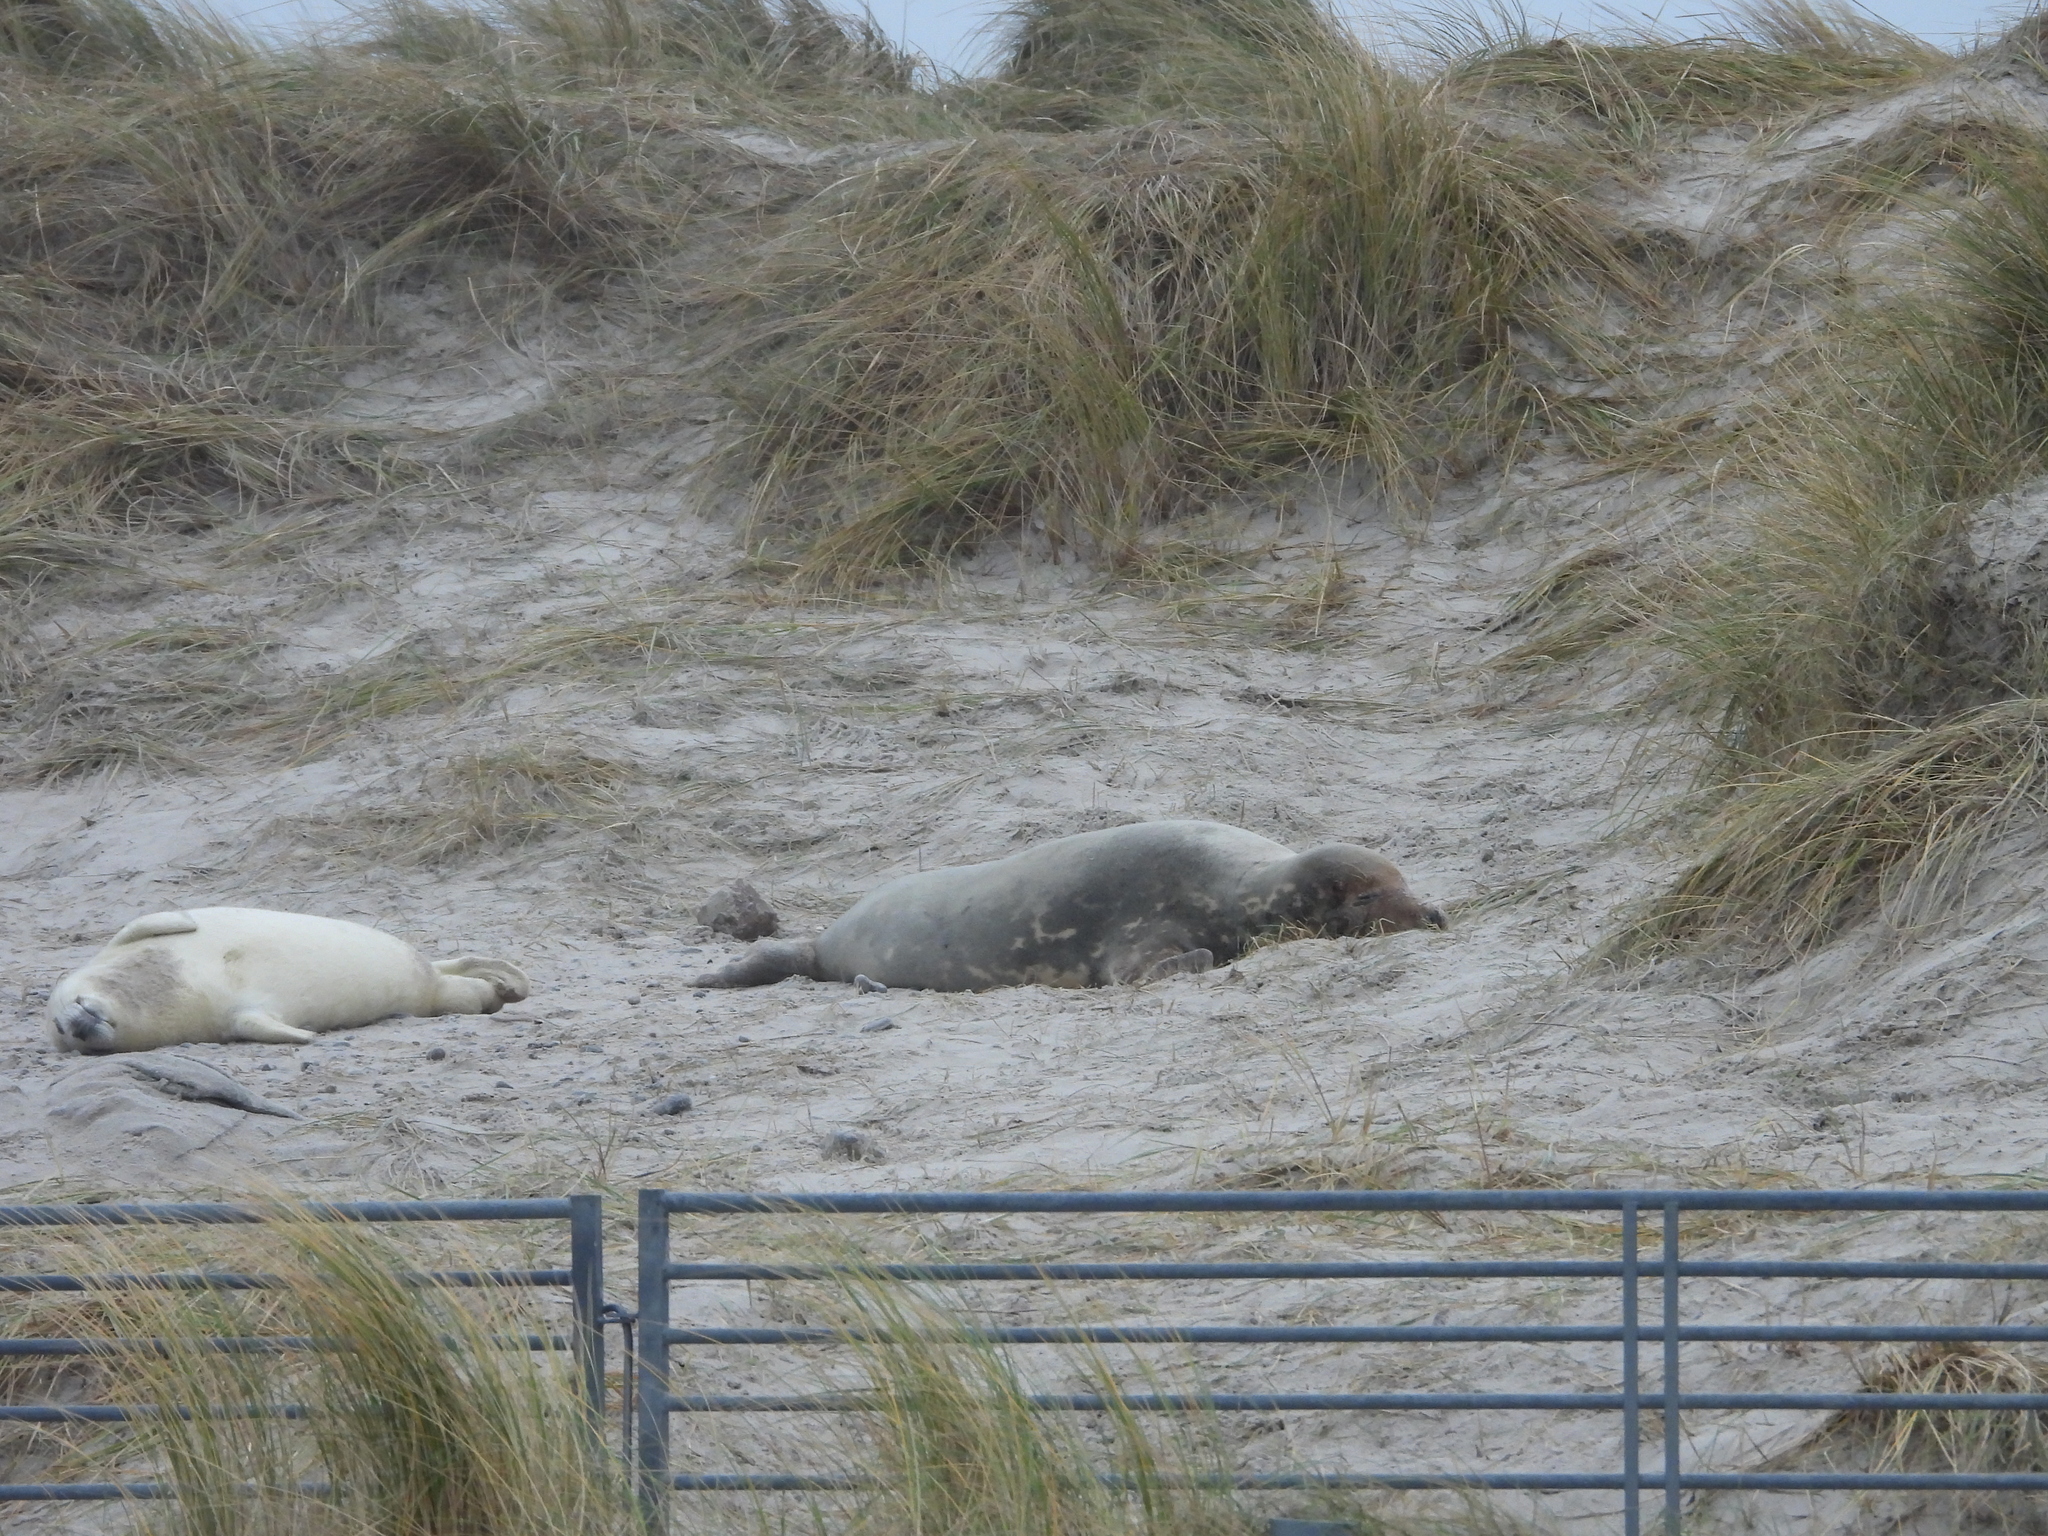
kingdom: Animalia
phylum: Chordata
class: Mammalia
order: Carnivora
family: Phocidae
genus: Halichoerus
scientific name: Halichoerus grypus
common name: Grey seal
